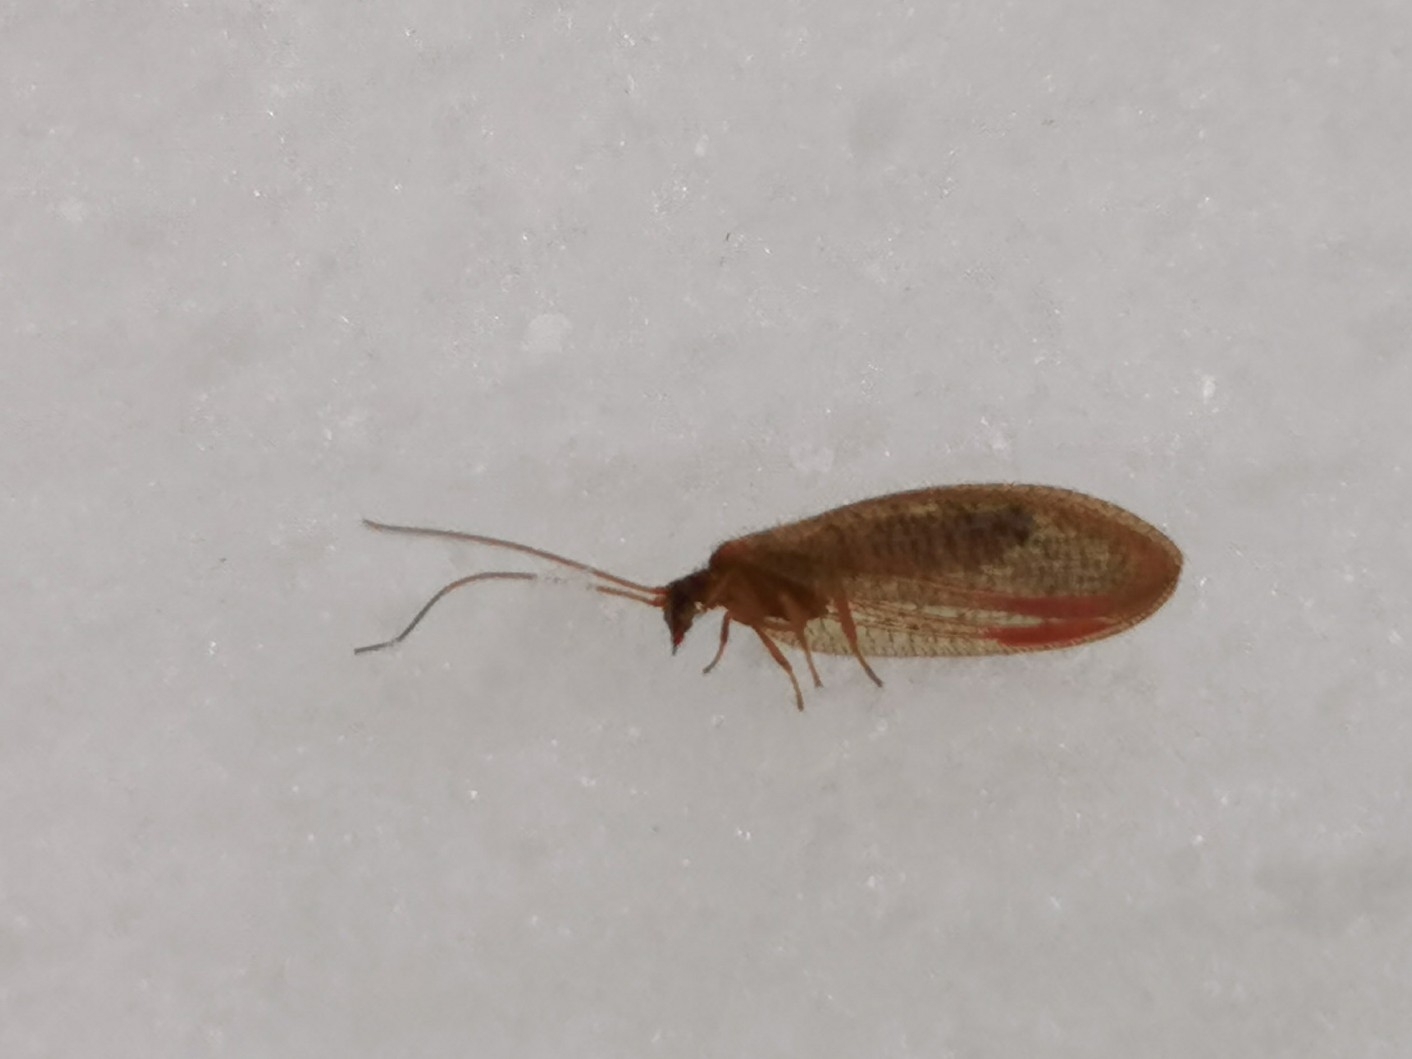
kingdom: Animalia
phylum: Arthropoda
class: Insecta
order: Neuroptera
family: Hemerobiidae
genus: Hemerobius
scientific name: Hemerobius stigma
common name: Brown pine lacewing
